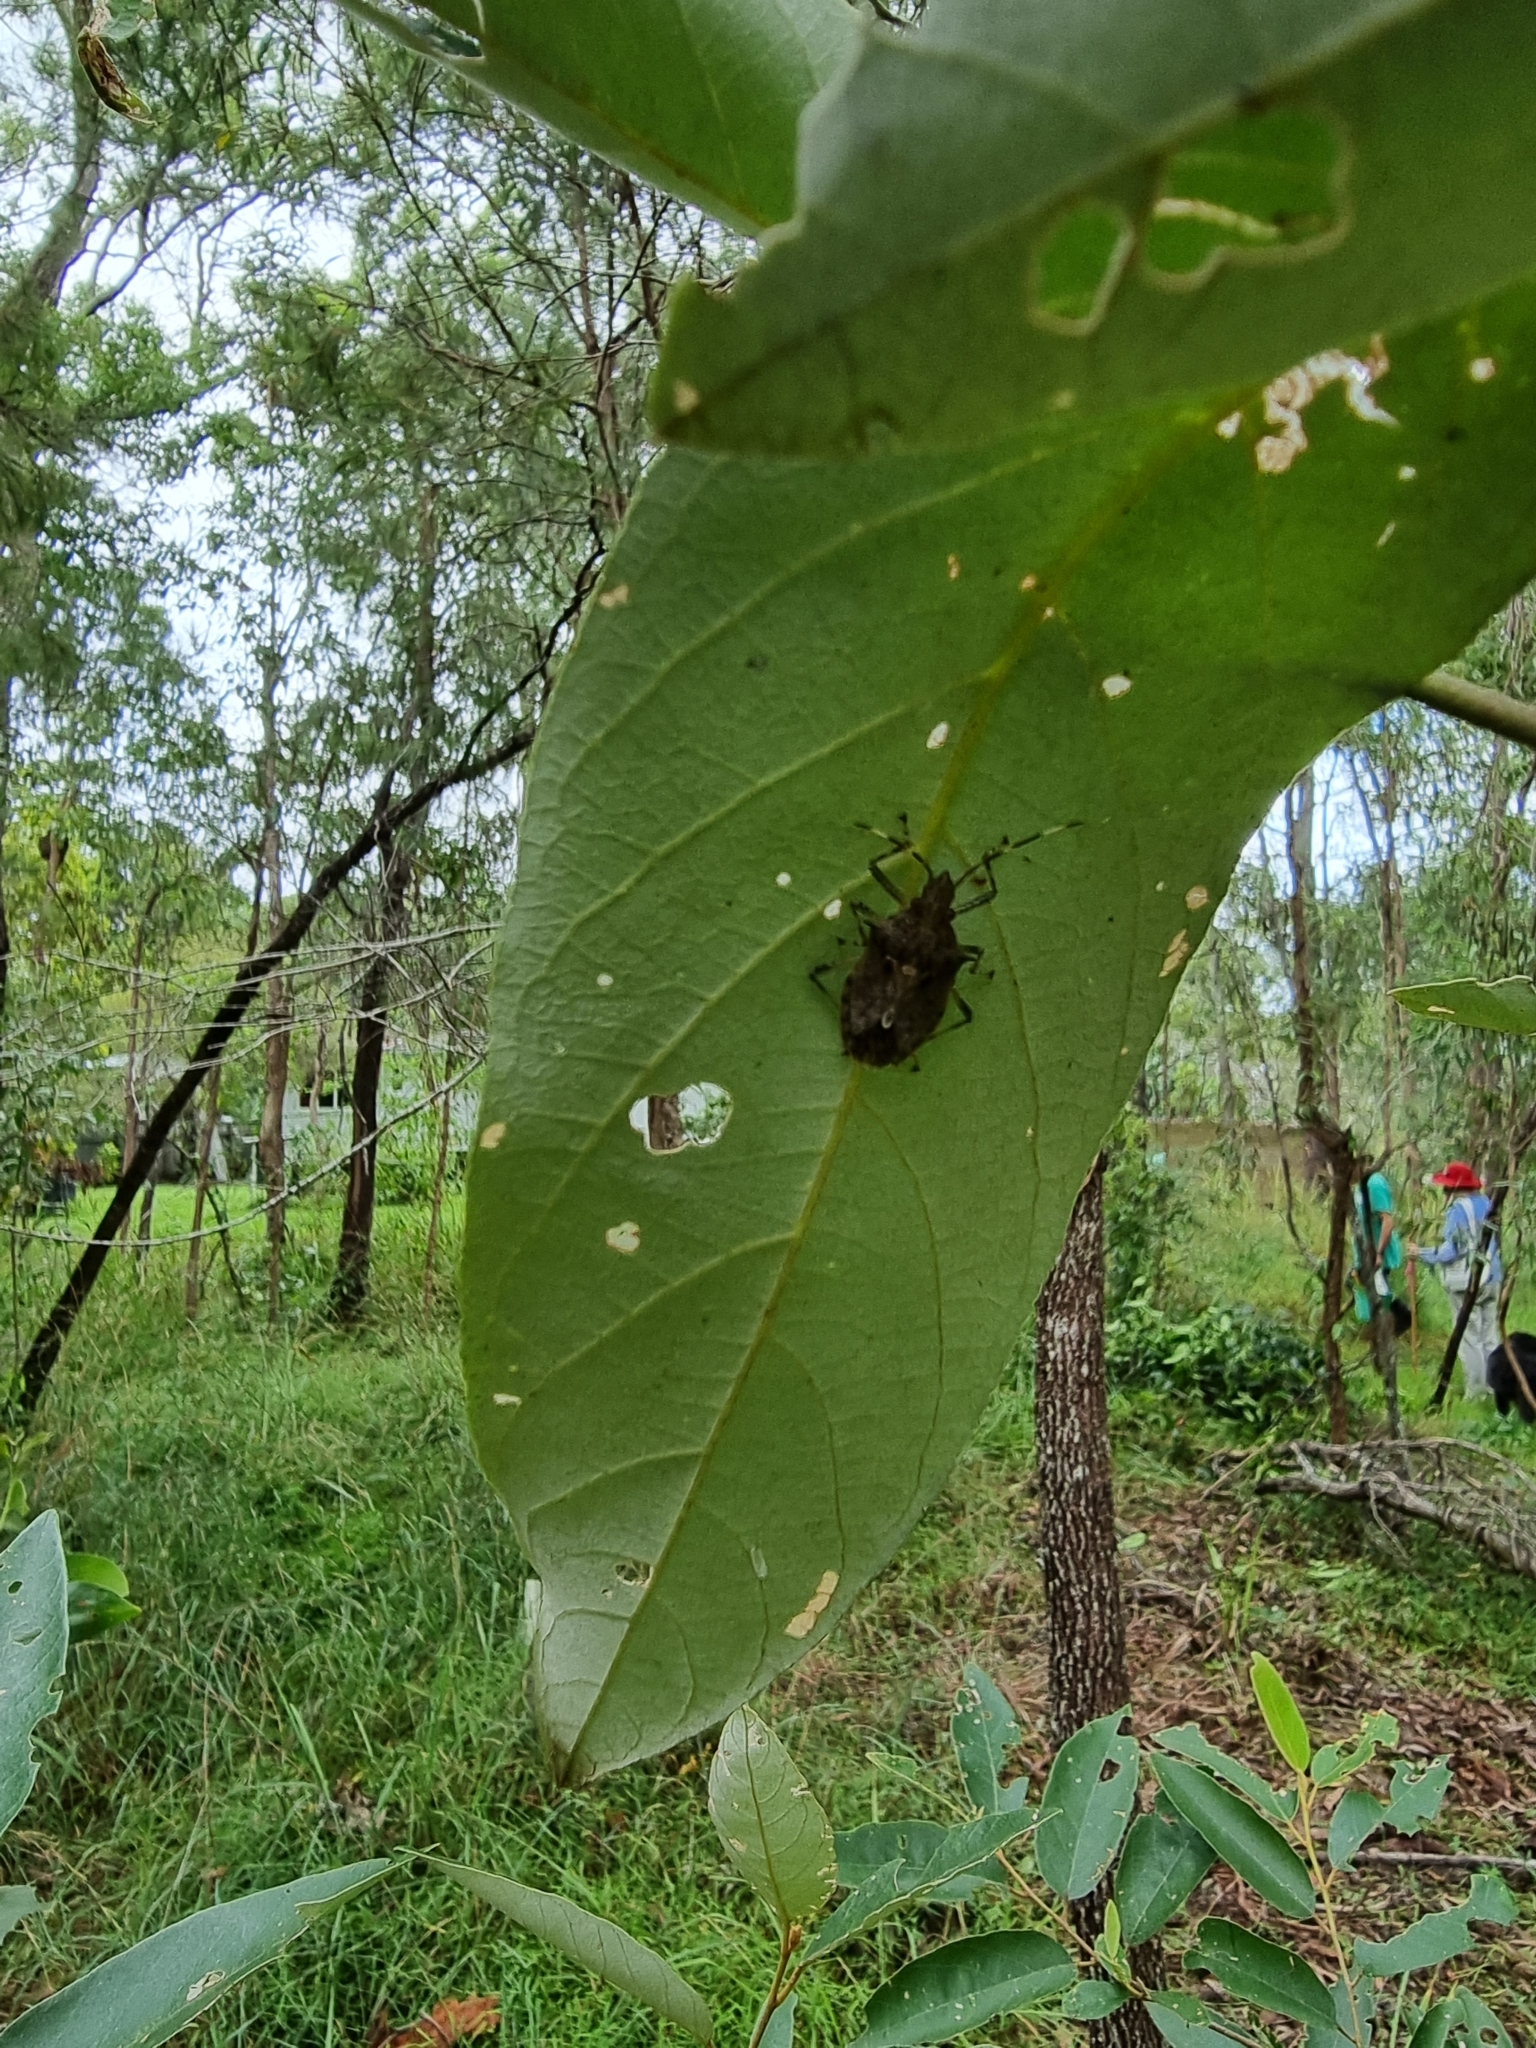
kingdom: Animalia
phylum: Arthropoda
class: Insecta
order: Hemiptera
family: Pentatomidae
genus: Bromocoris
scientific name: Bromocoris
